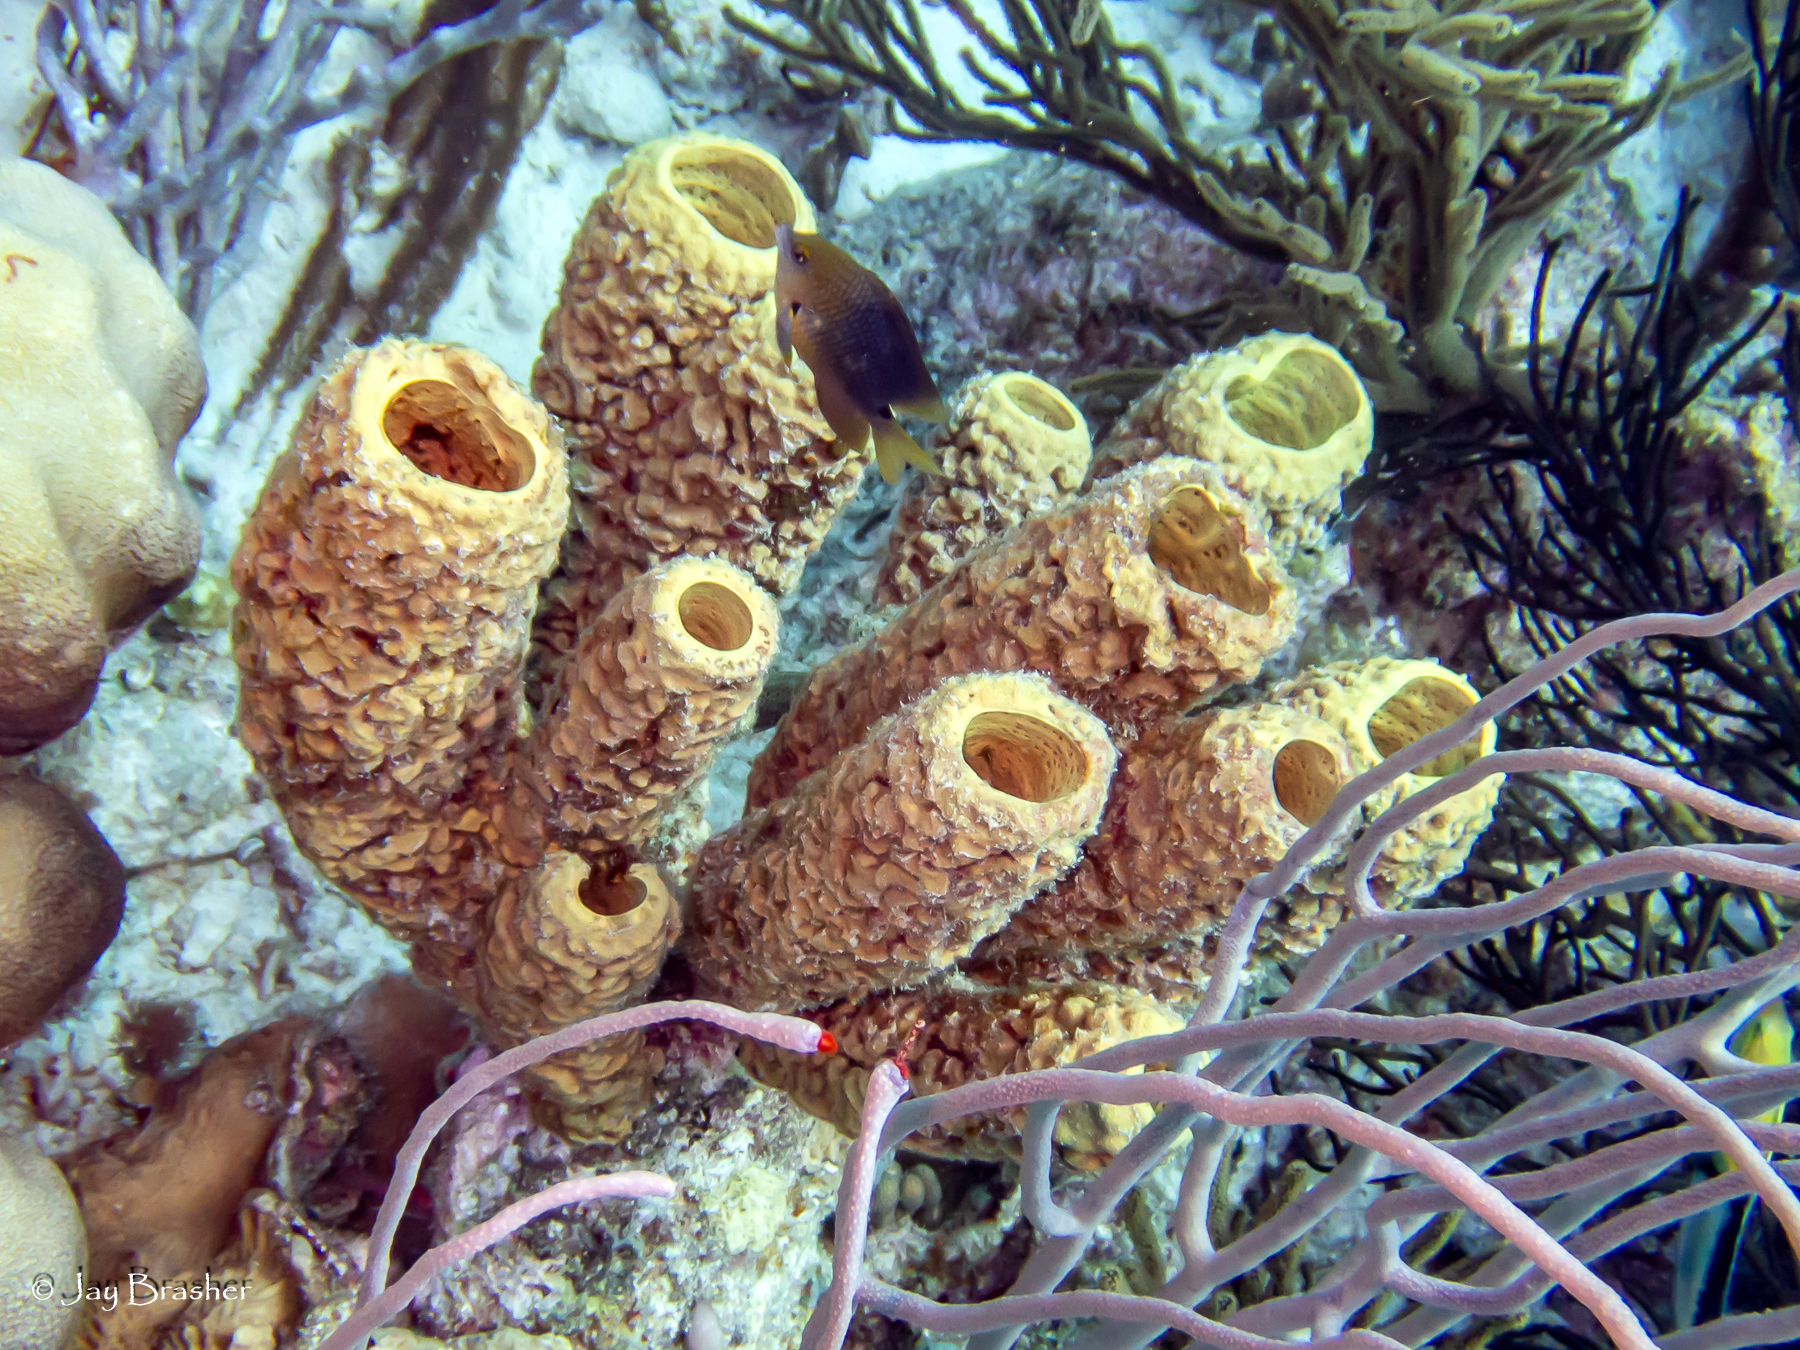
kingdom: Animalia
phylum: Porifera
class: Demospongiae
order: Verongiida
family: Aplysinidae
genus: Aplysina
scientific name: Aplysina archeri
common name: Stove-pipe sponge
